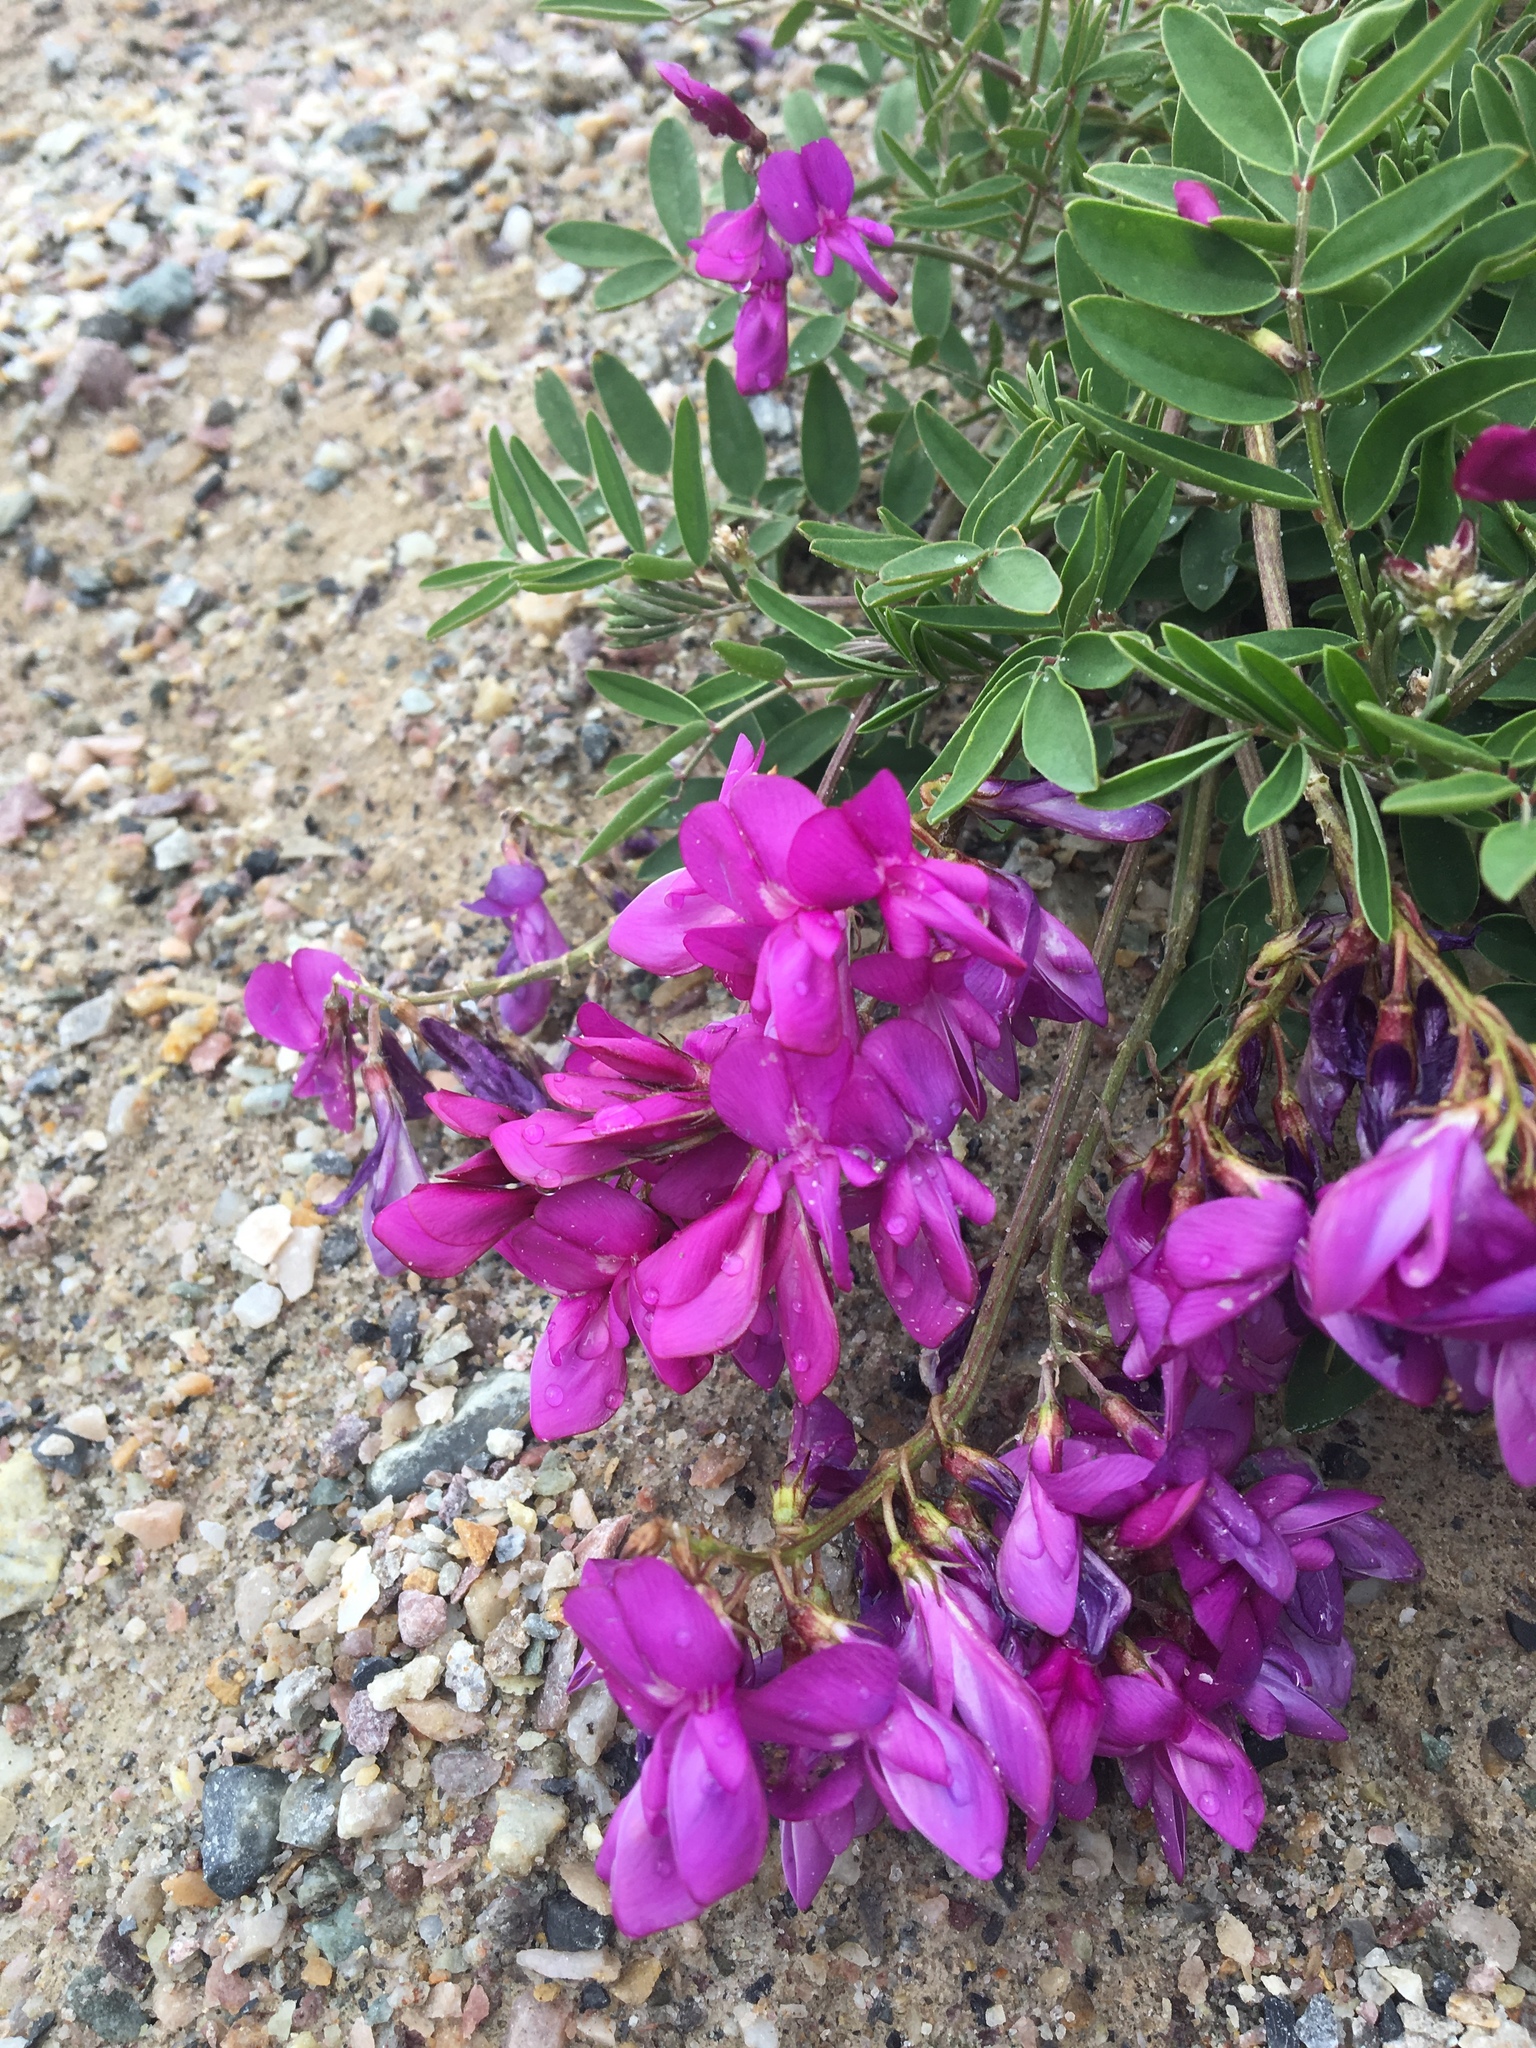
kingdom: Plantae
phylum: Tracheophyta
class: Magnoliopsida
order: Fabales
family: Fabaceae
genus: Hedysarum
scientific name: Hedysarum boreale
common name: Northern sweet-vetch
